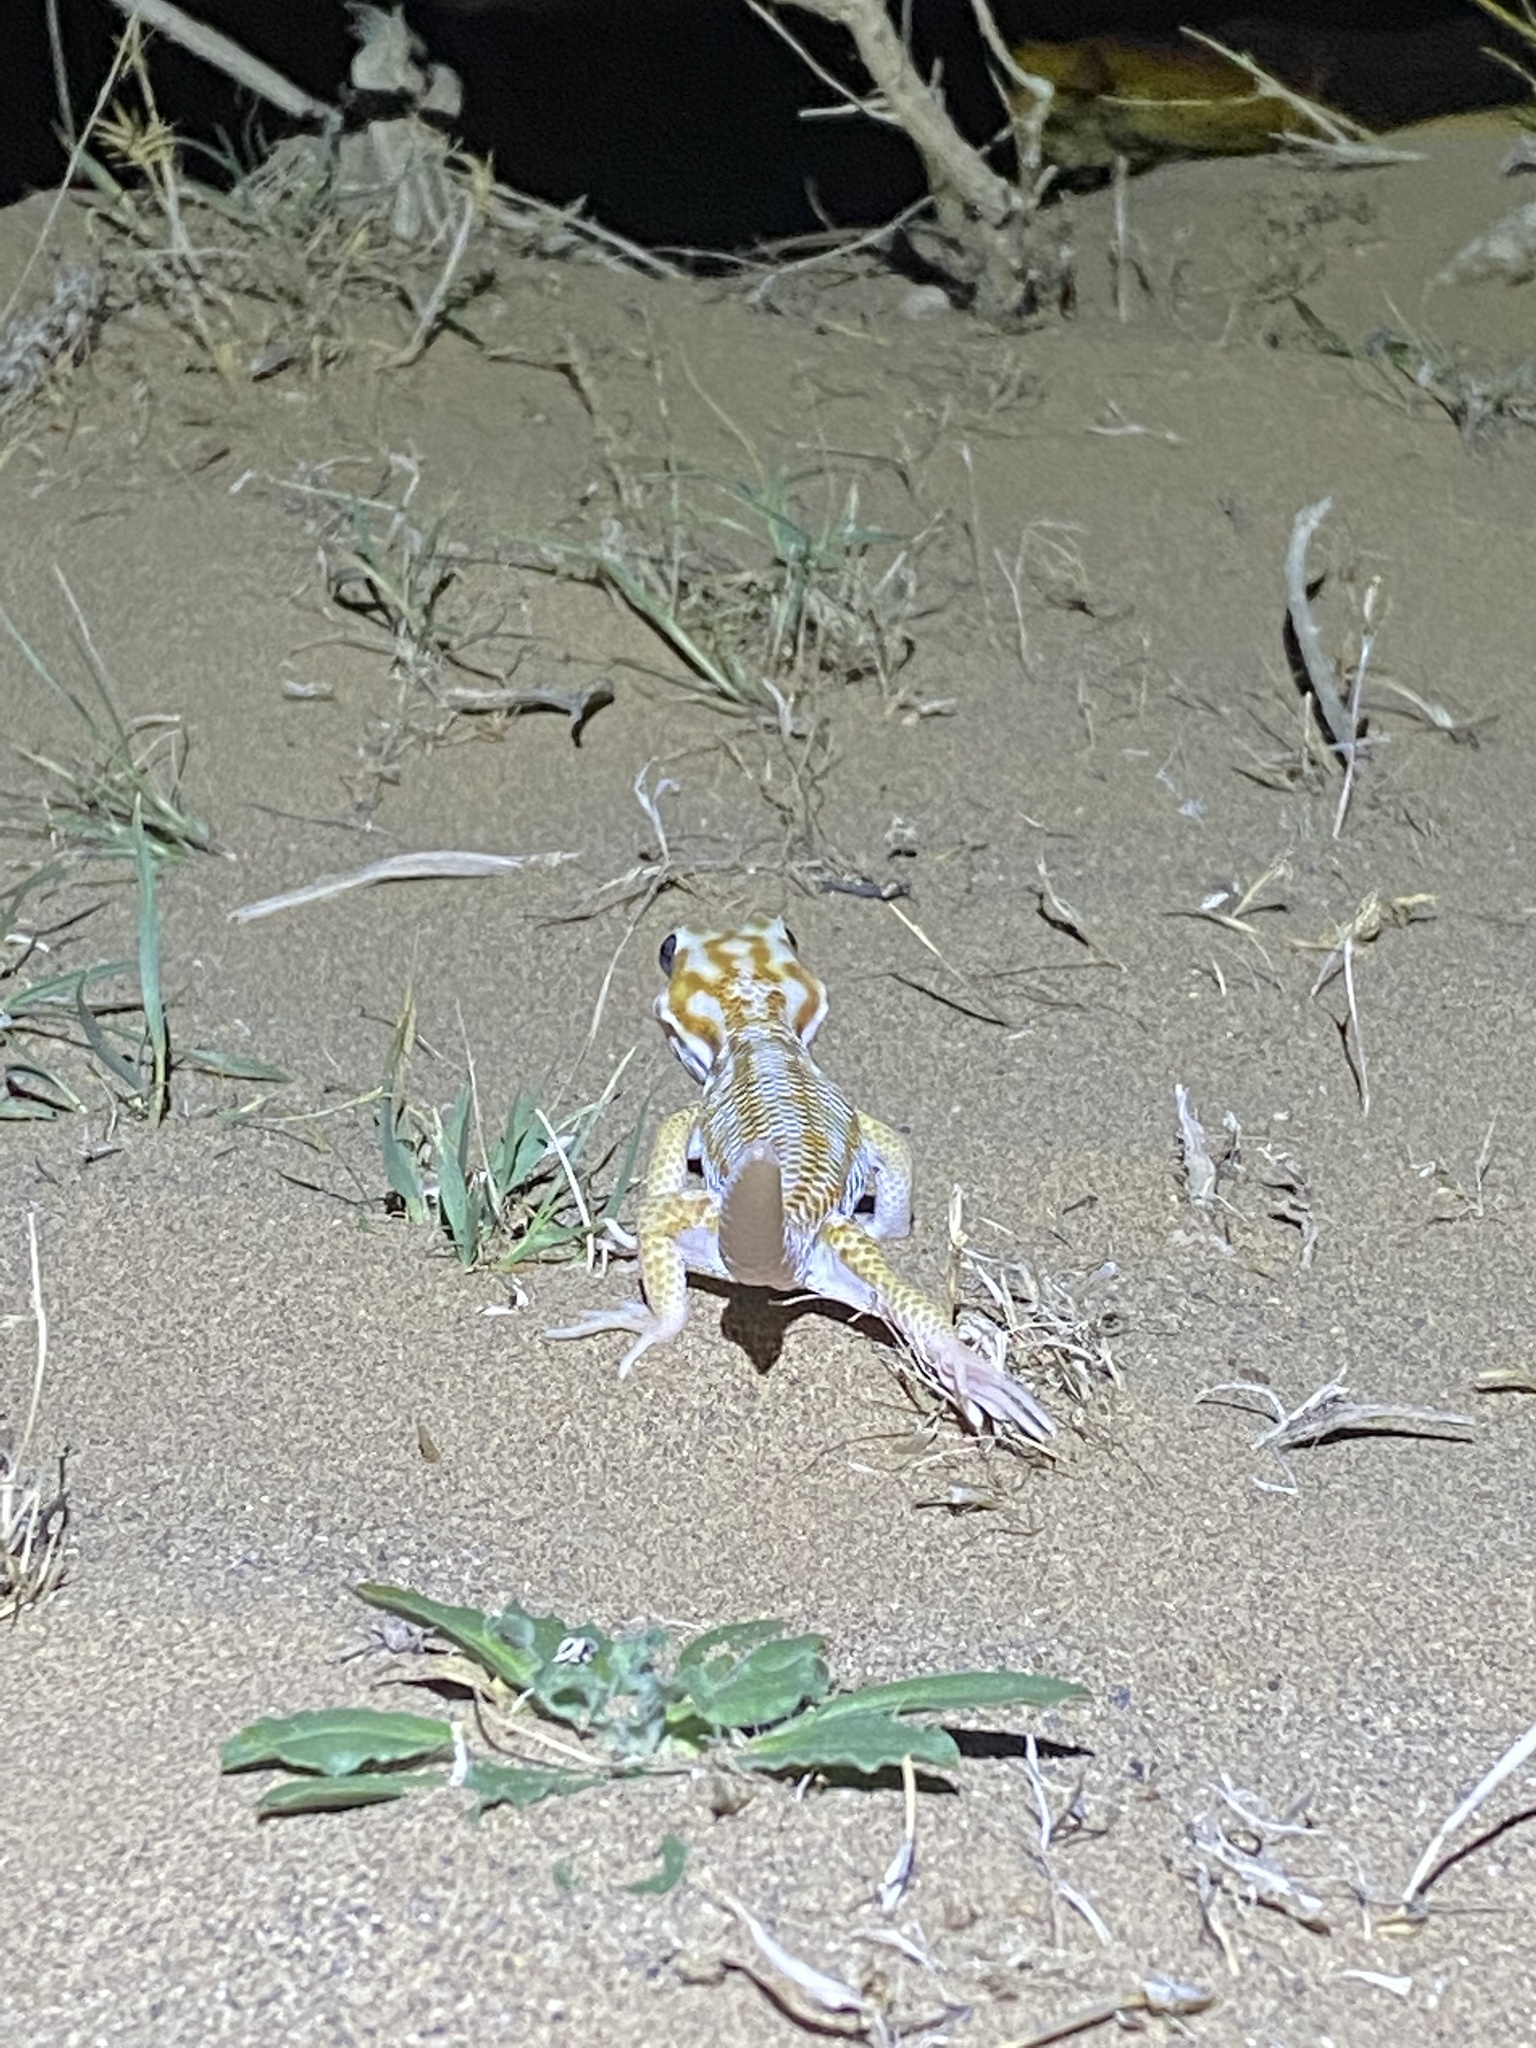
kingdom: Animalia
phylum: Chordata
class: Squamata
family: Sphaerodactylidae
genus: Teratoscincus
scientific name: Teratoscincus keyserlingii
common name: Frog-eyed gecko
